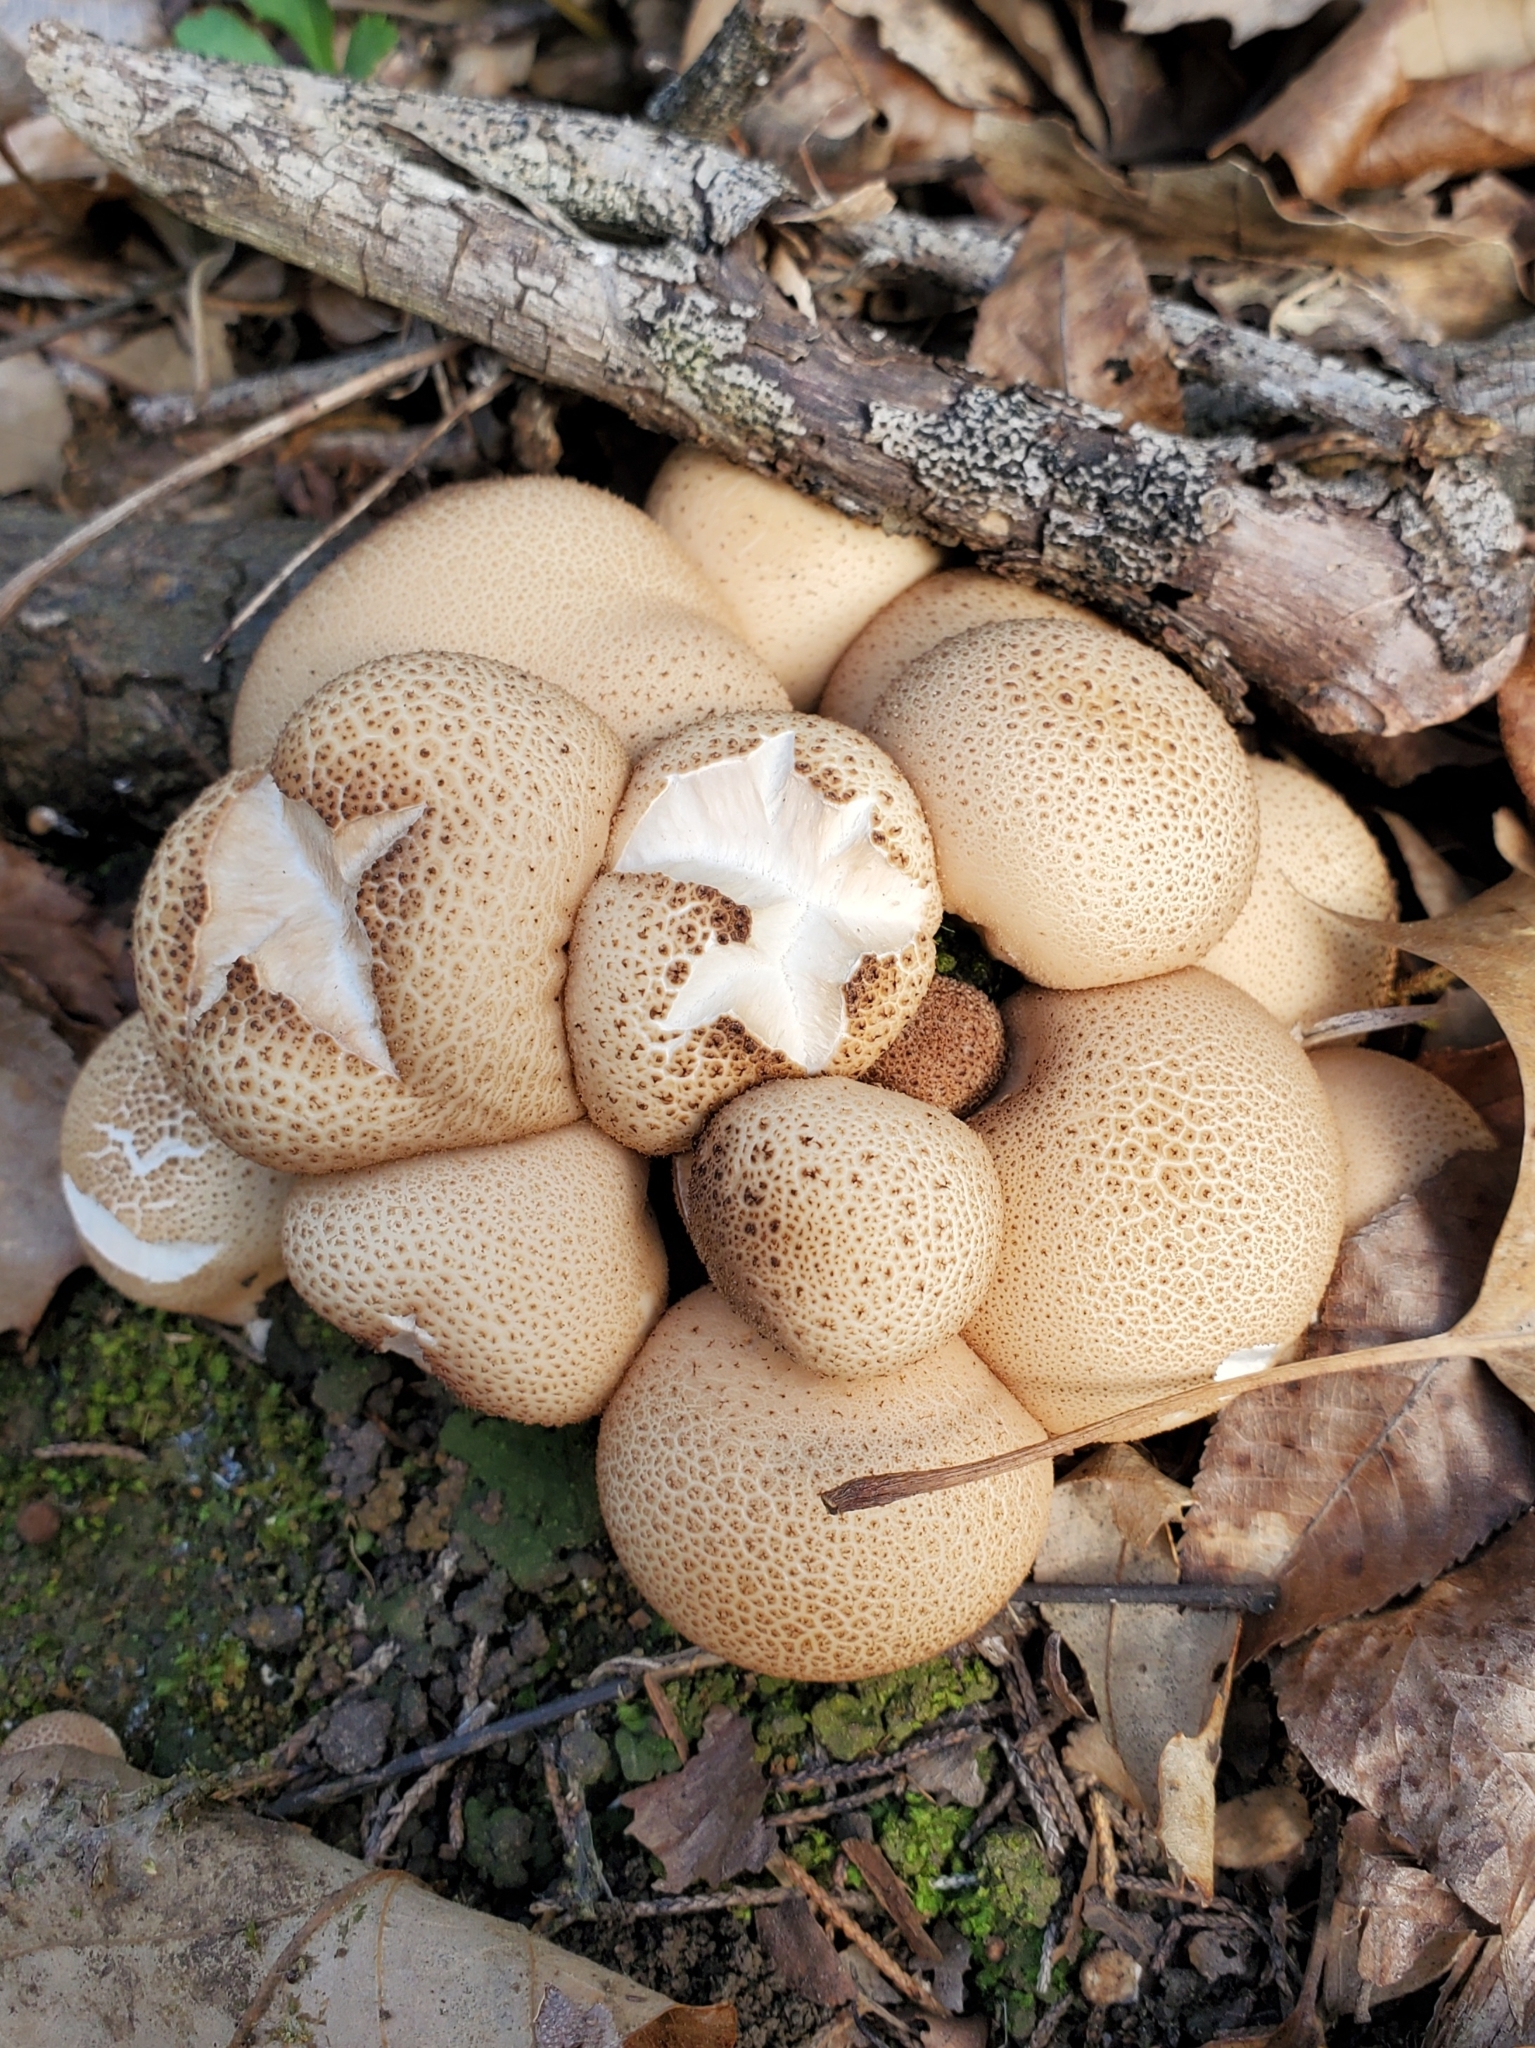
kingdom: Fungi
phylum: Basidiomycota
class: Agaricomycetes
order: Agaricales
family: Lycoperdaceae
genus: Apioperdon
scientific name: Apioperdon pyriforme
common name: Pear-shaped puffball
